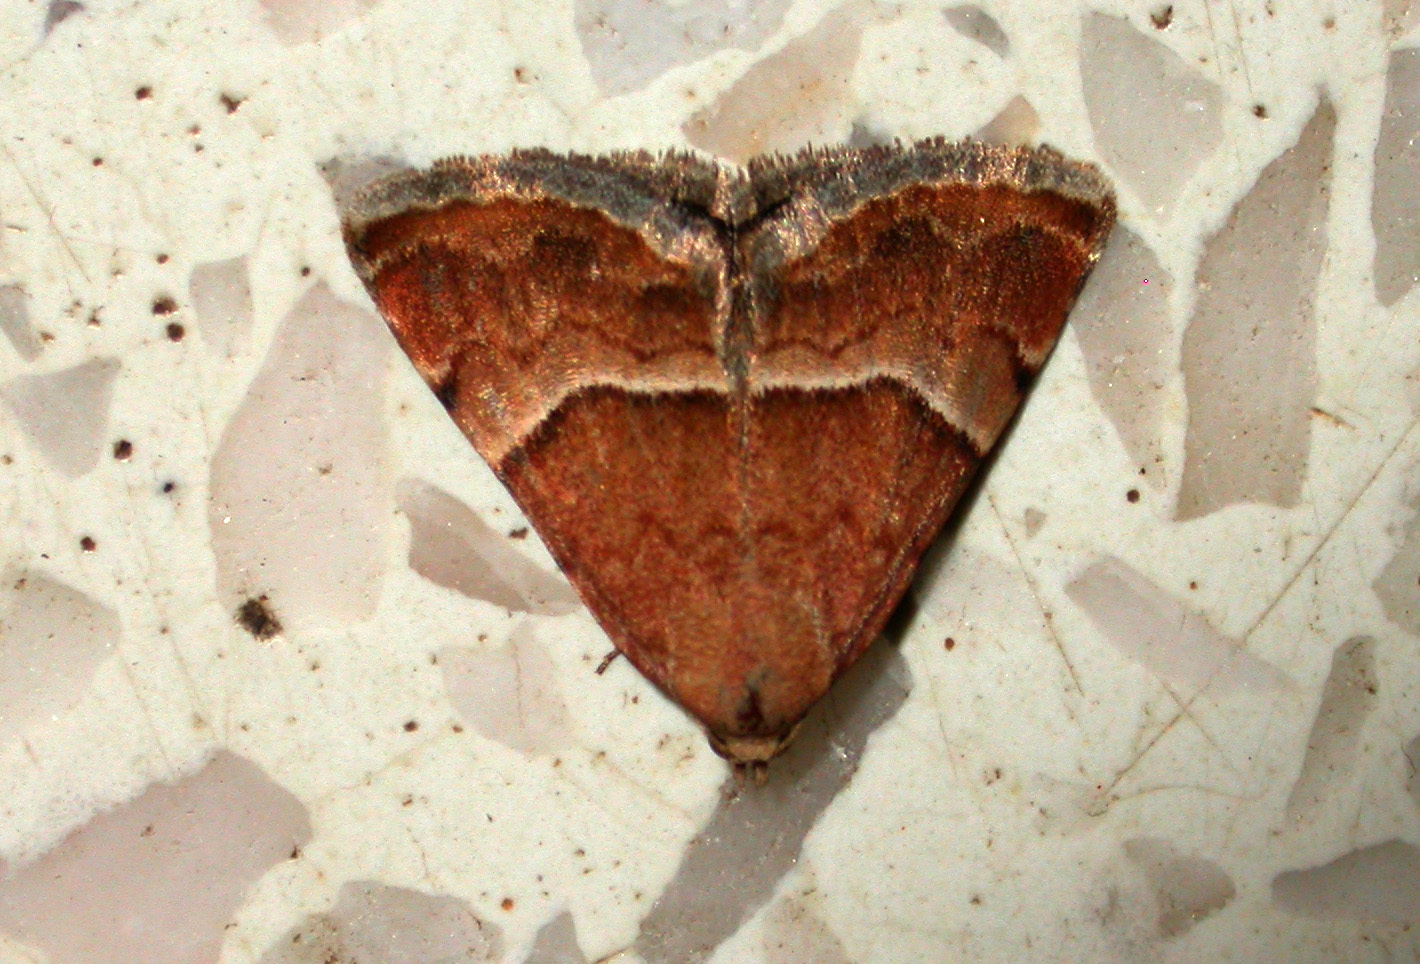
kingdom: Animalia
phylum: Arthropoda
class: Insecta
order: Lepidoptera
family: Noctuidae
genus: Odice
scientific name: Odice suava
